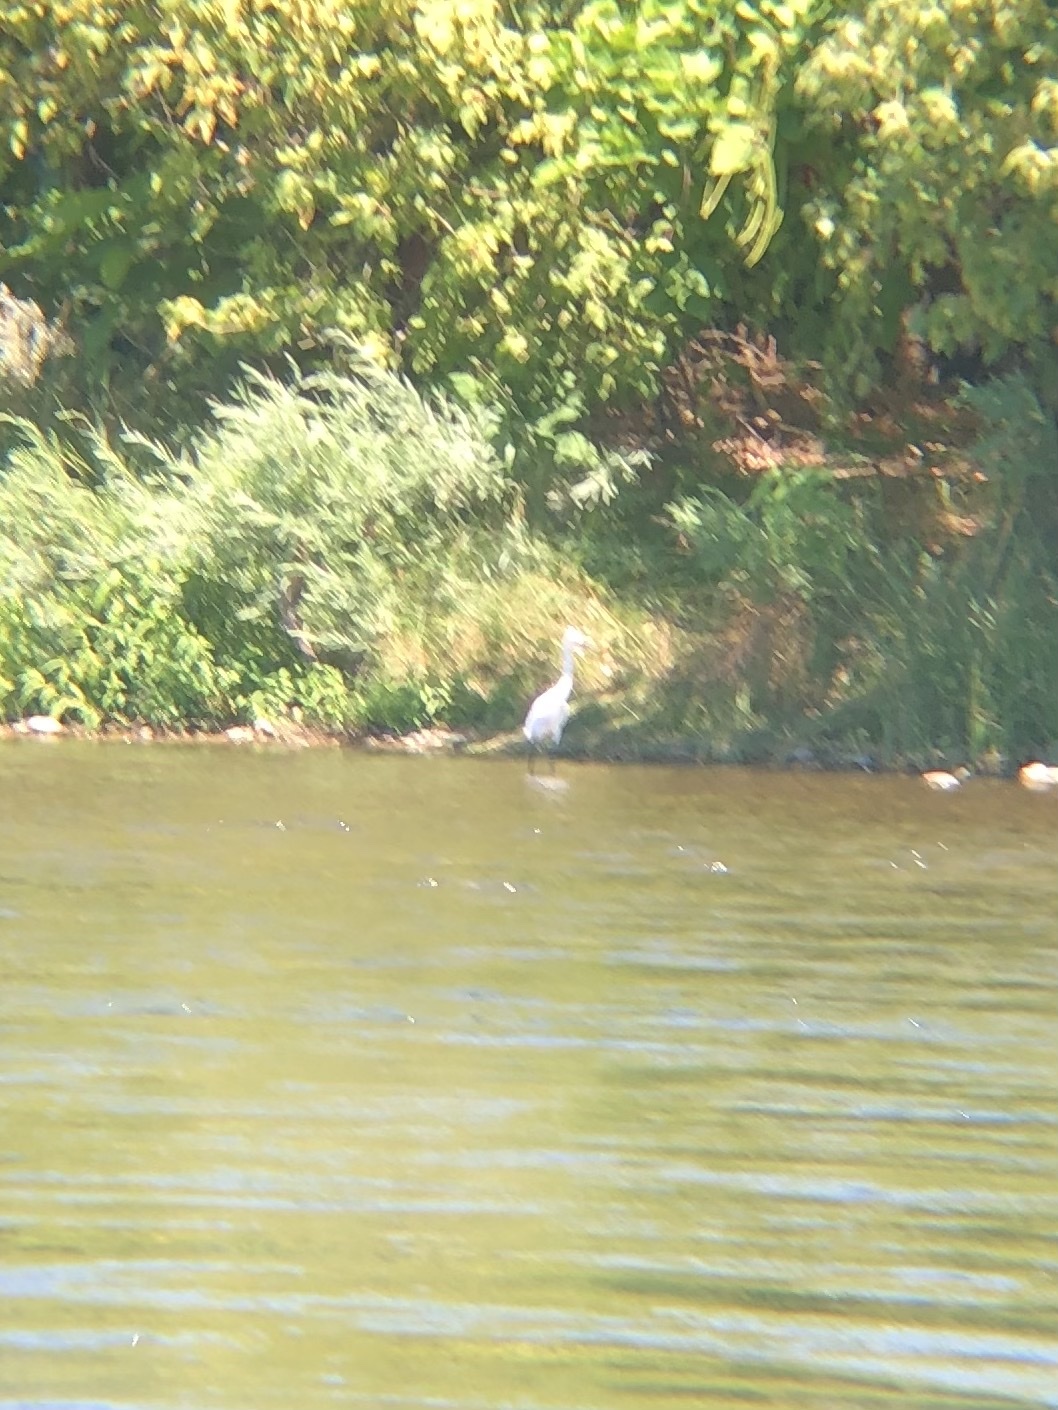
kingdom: Animalia
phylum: Chordata
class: Aves
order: Pelecaniformes
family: Ardeidae
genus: Ardea
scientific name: Ardea alba
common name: Great egret
